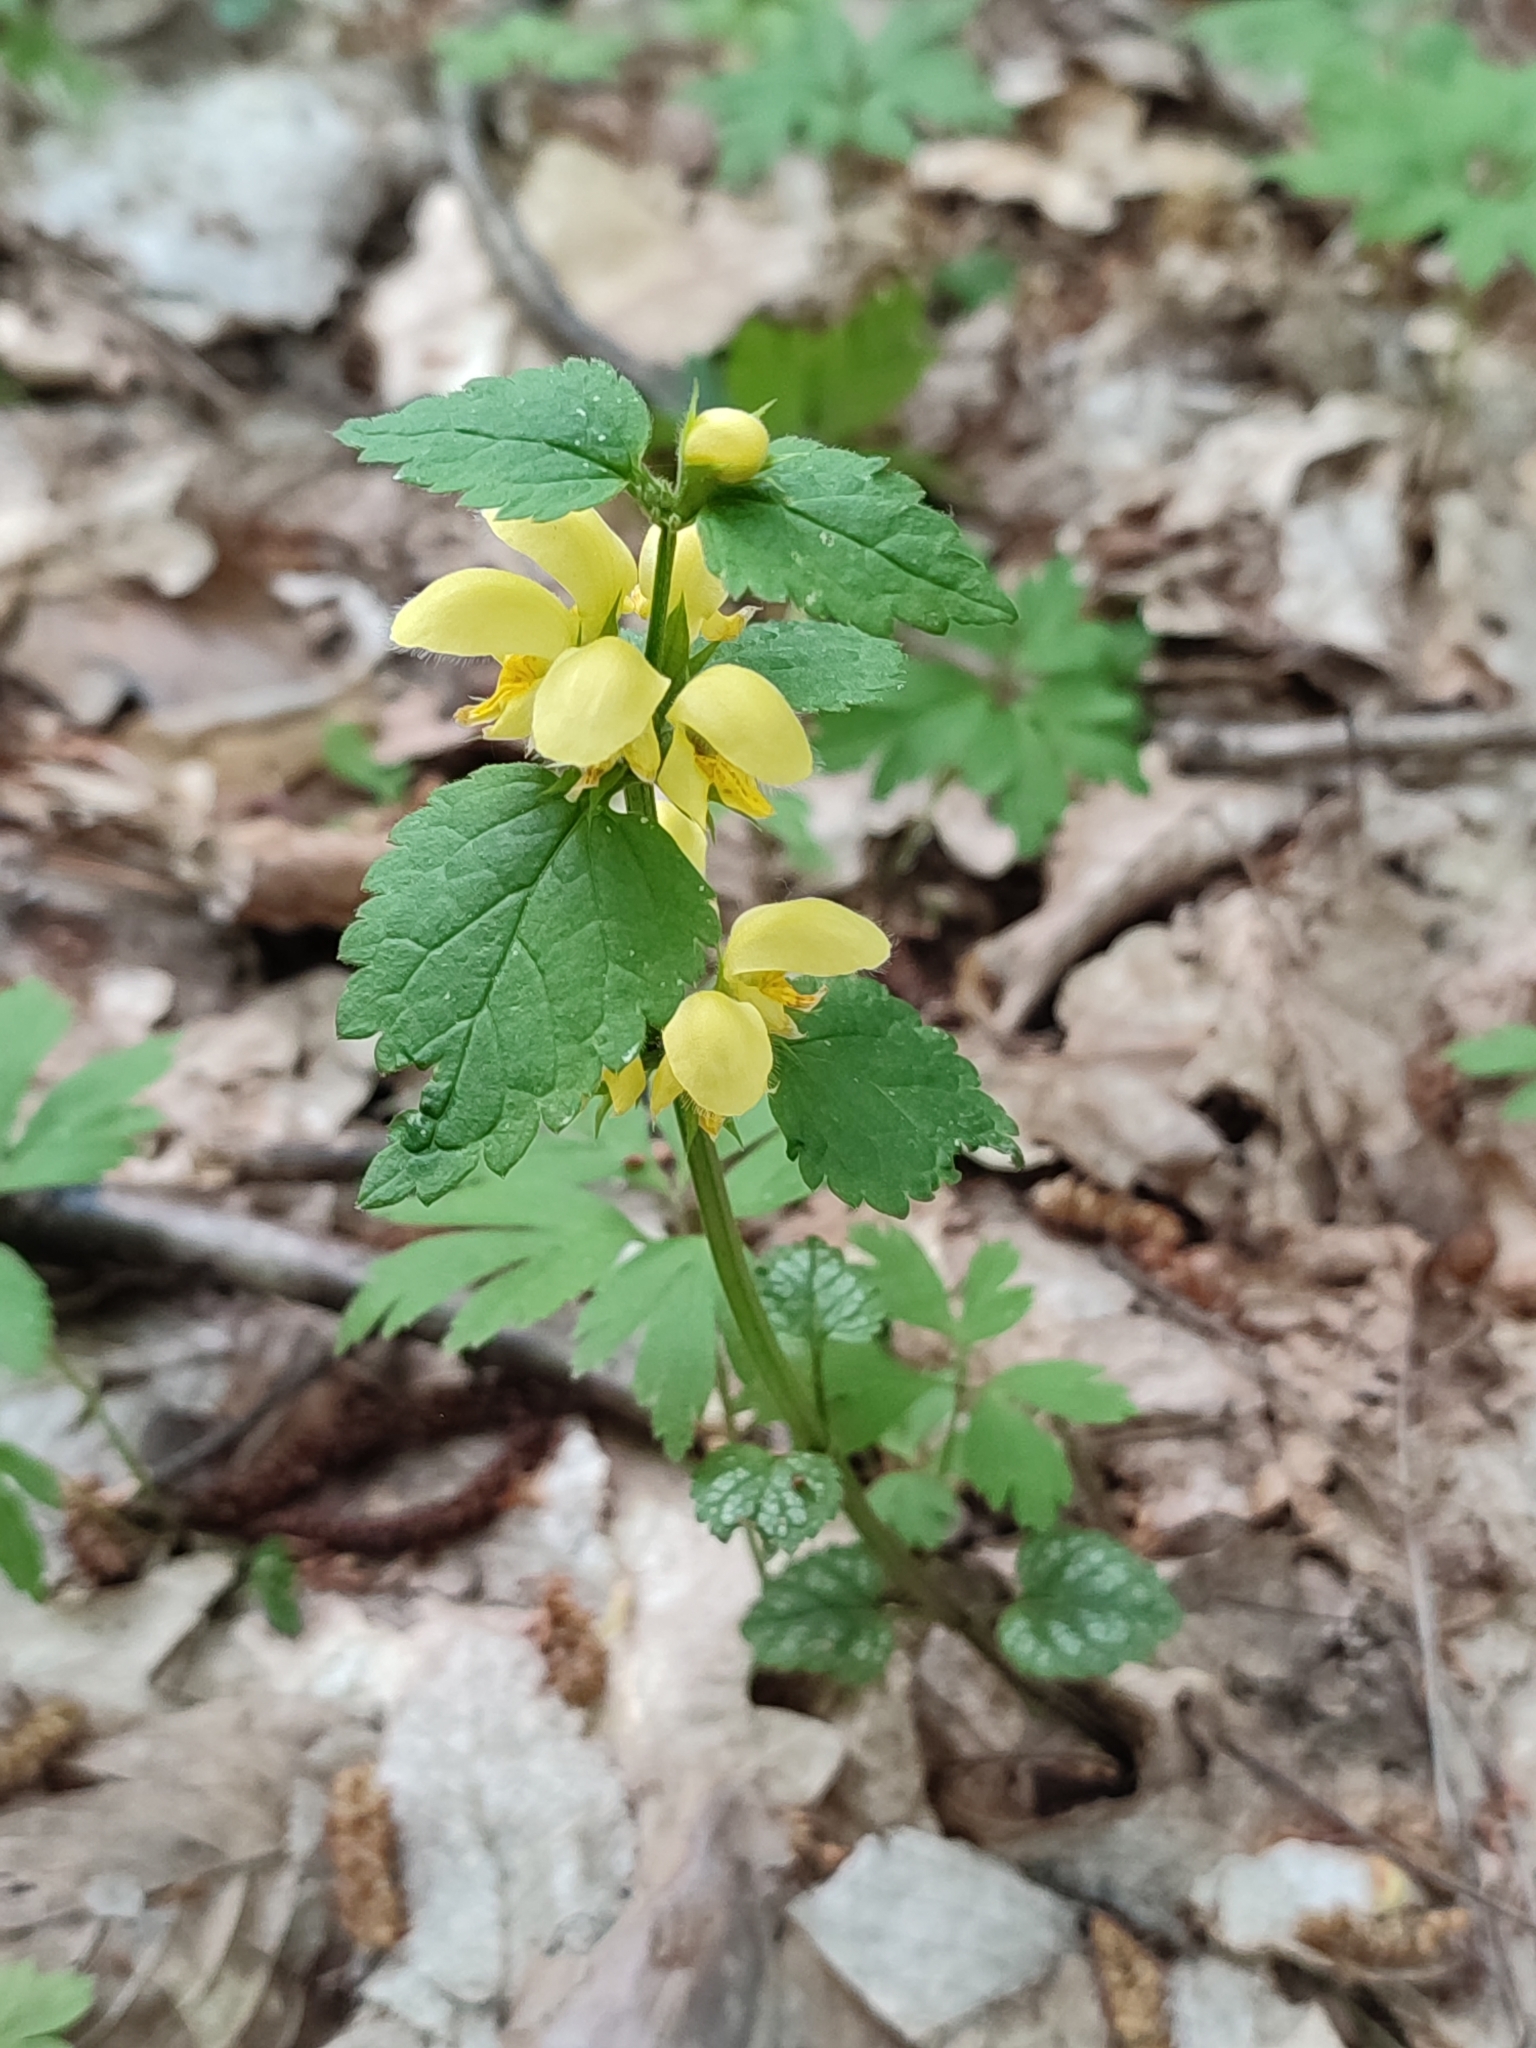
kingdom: Plantae
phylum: Tracheophyta
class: Magnoliopsida
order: Lamiales
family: Lamiaceae
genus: Lamium
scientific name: Lamium galeobdolon
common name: Yellow archangel
